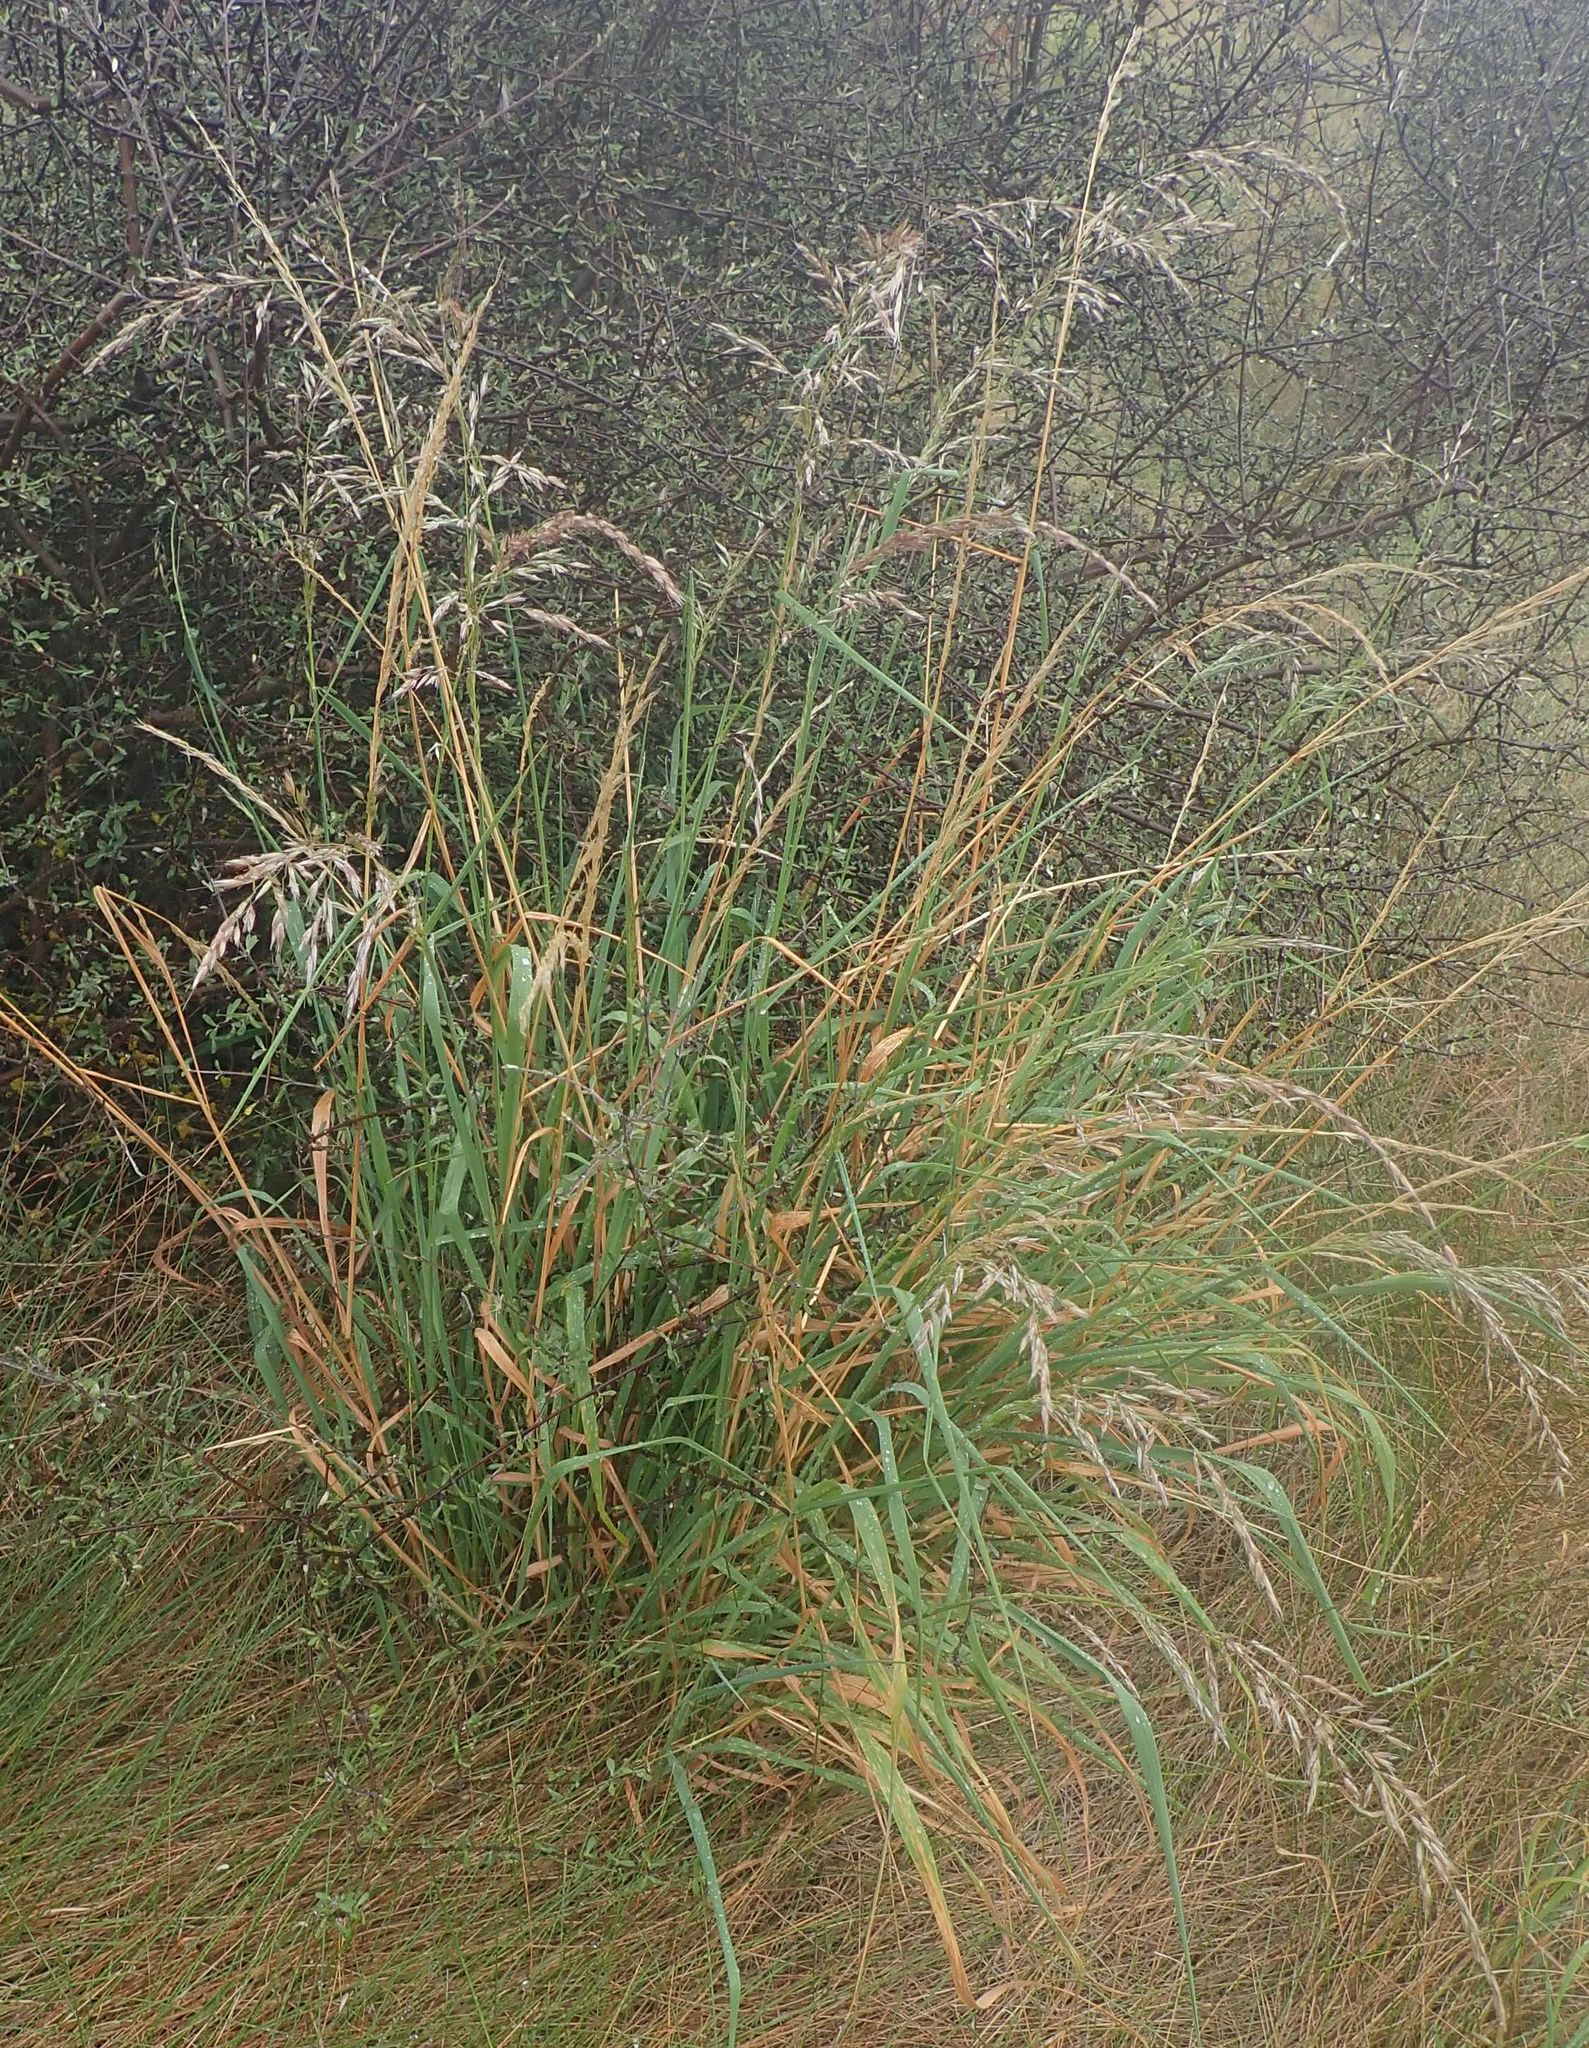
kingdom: Plantae
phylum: Tracheophyta
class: Liliopsida
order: Poales
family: Poaceae
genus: Arrhenatherum
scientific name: Arrhenatherum elatius
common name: Tall oatgrass
